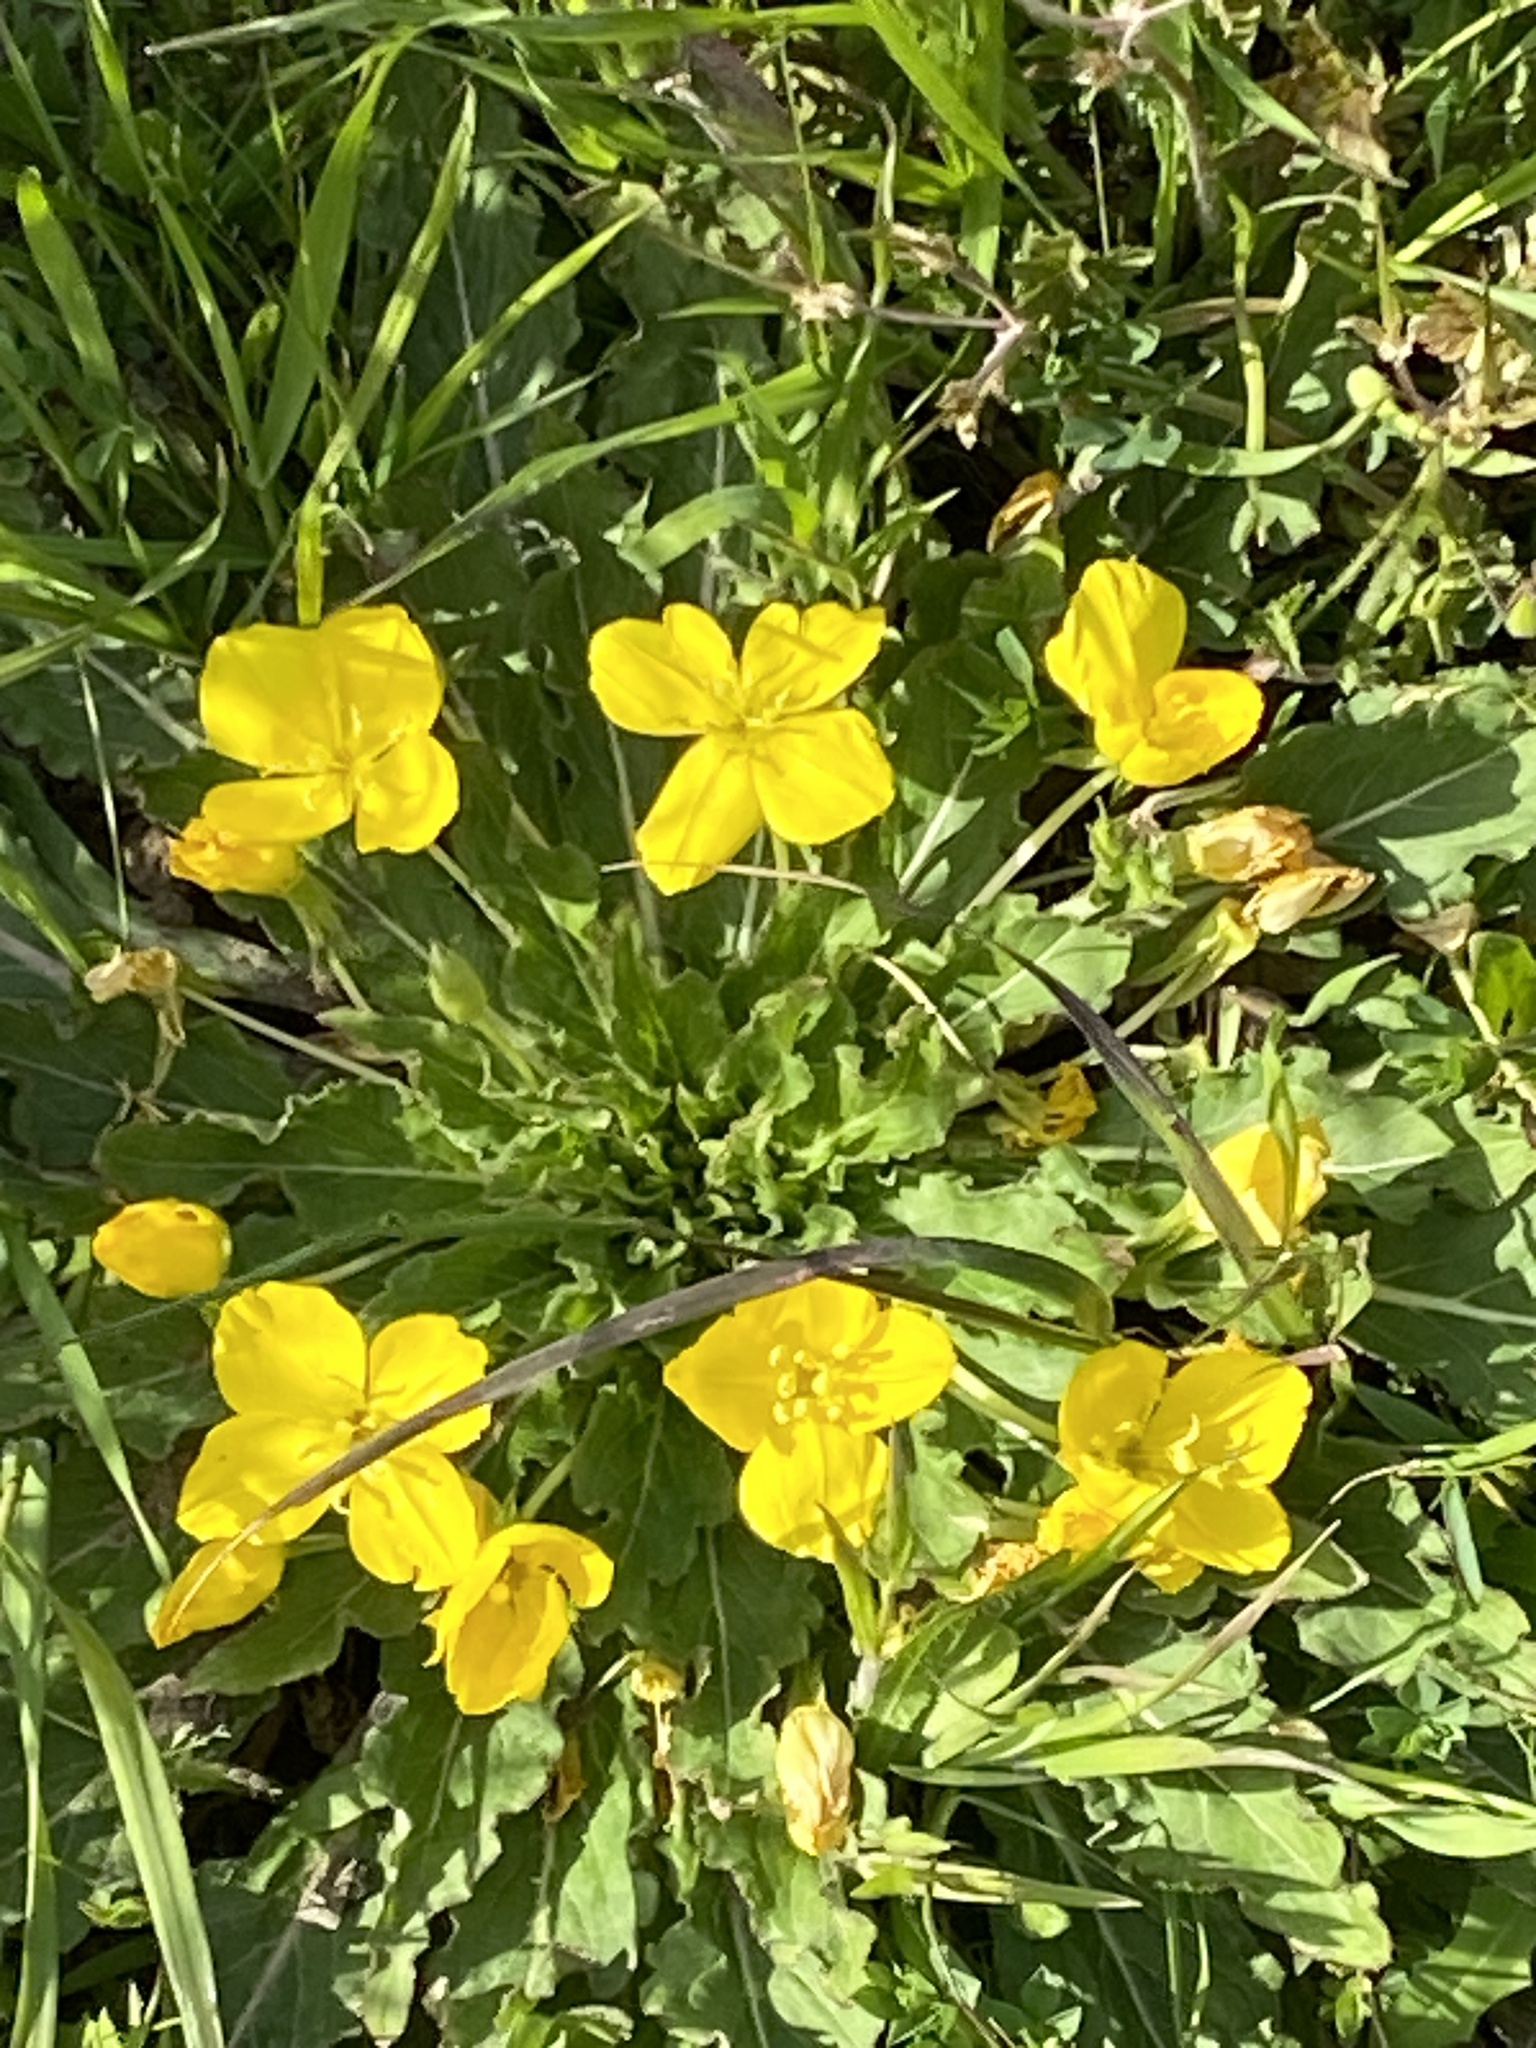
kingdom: Plantae
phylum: Tracheophyta
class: Magnoliopsida
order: Myrtales
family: Onagraceae
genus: Taraxia
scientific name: Taraxia ovata
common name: Goldeneggs
